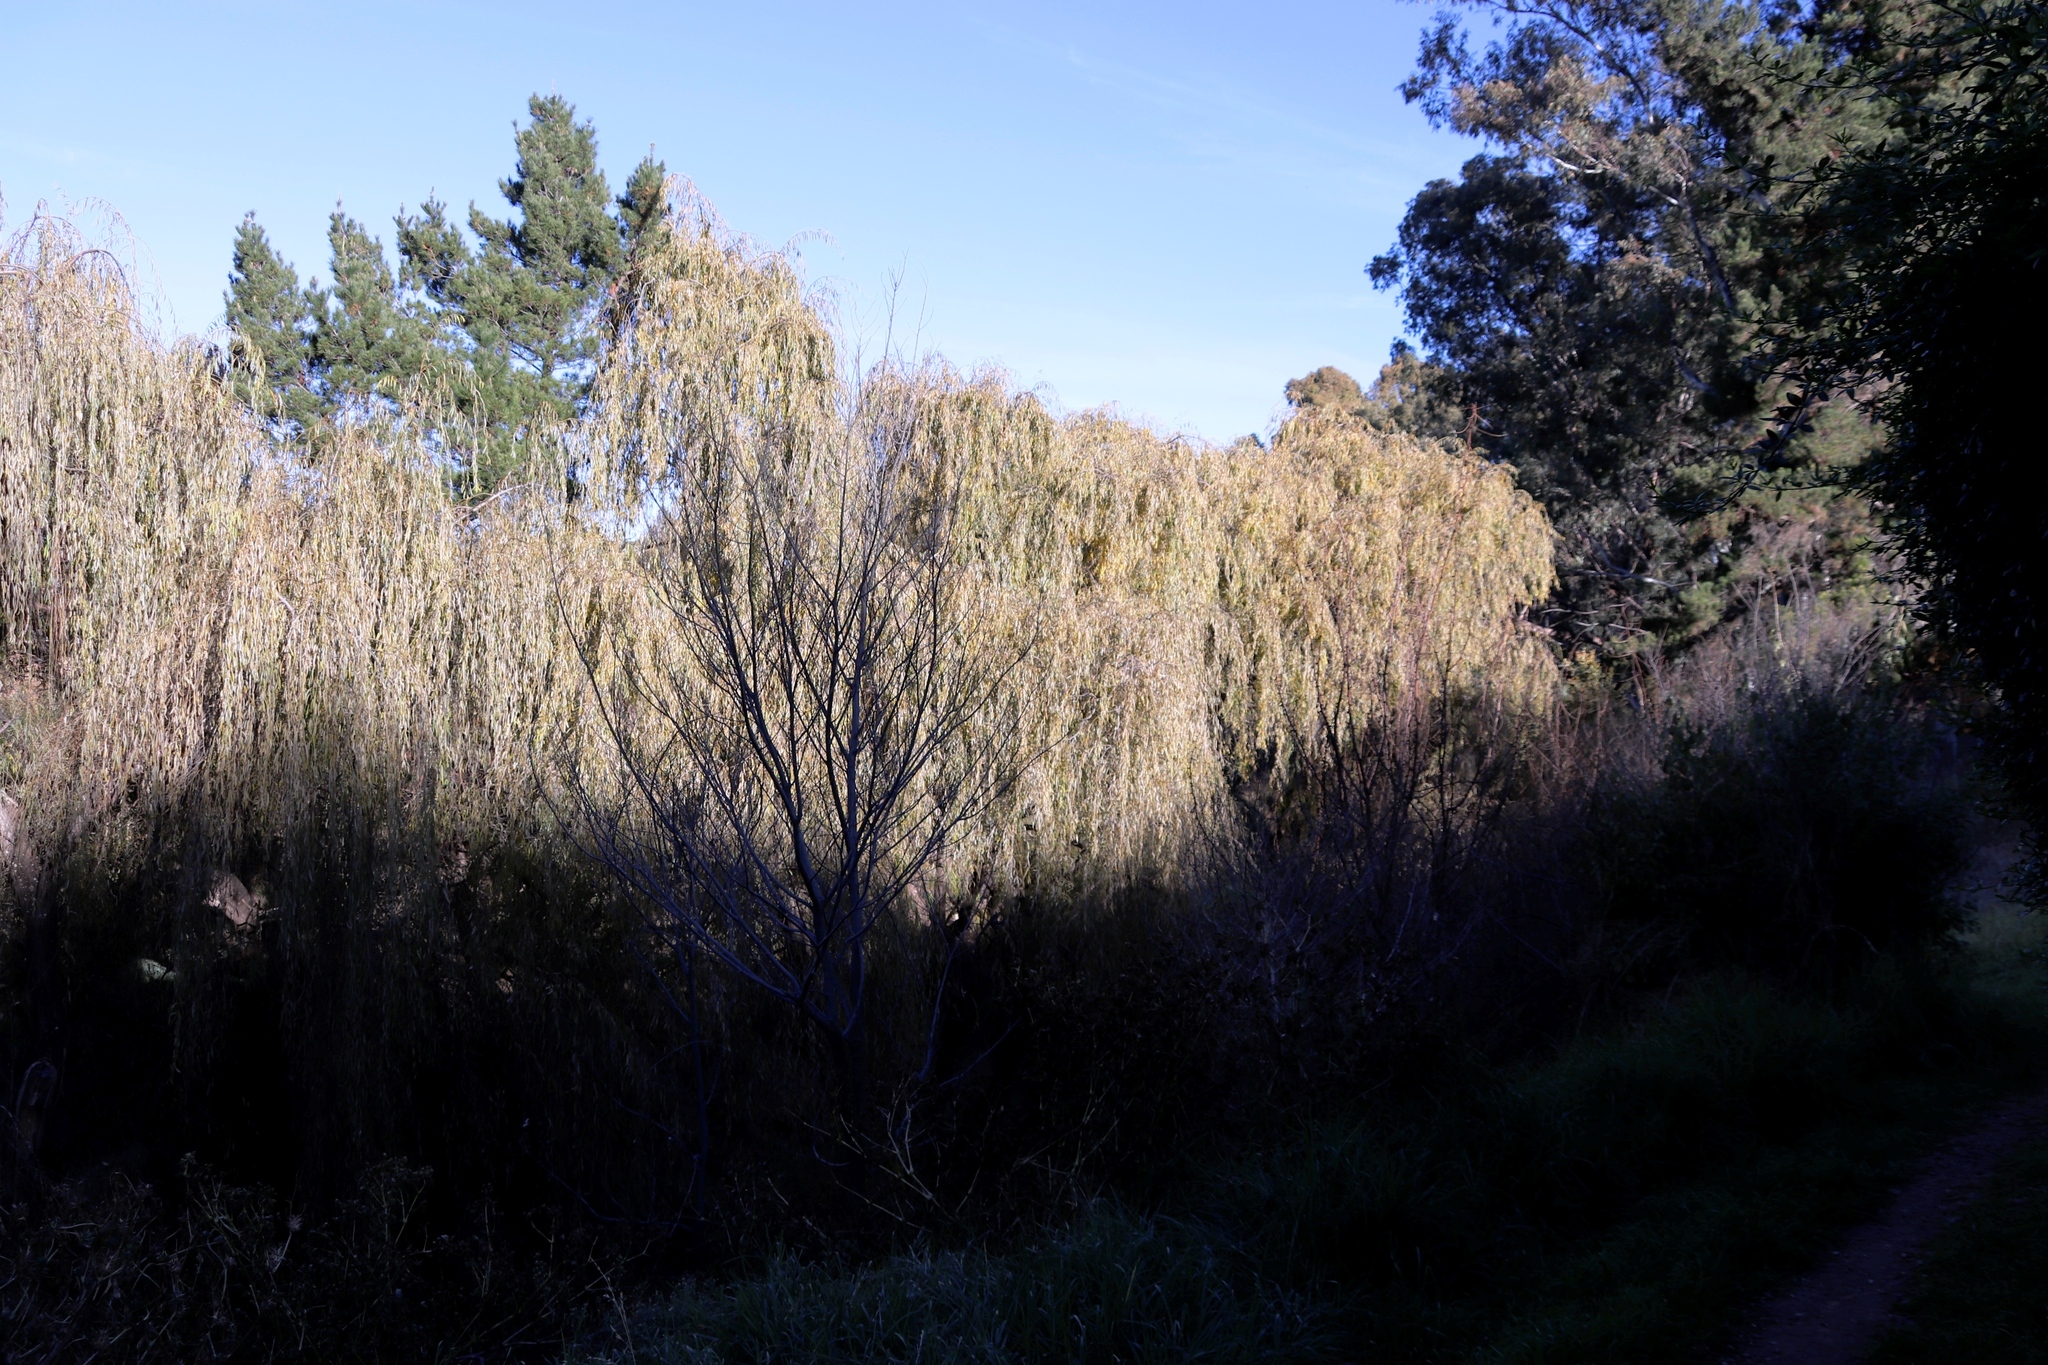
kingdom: Plantae
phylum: Tracheophyta
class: Magnoliopsida
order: Malpighiales
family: Salicaceae
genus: Salix
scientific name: Salix babylonica
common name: Weeping willow
